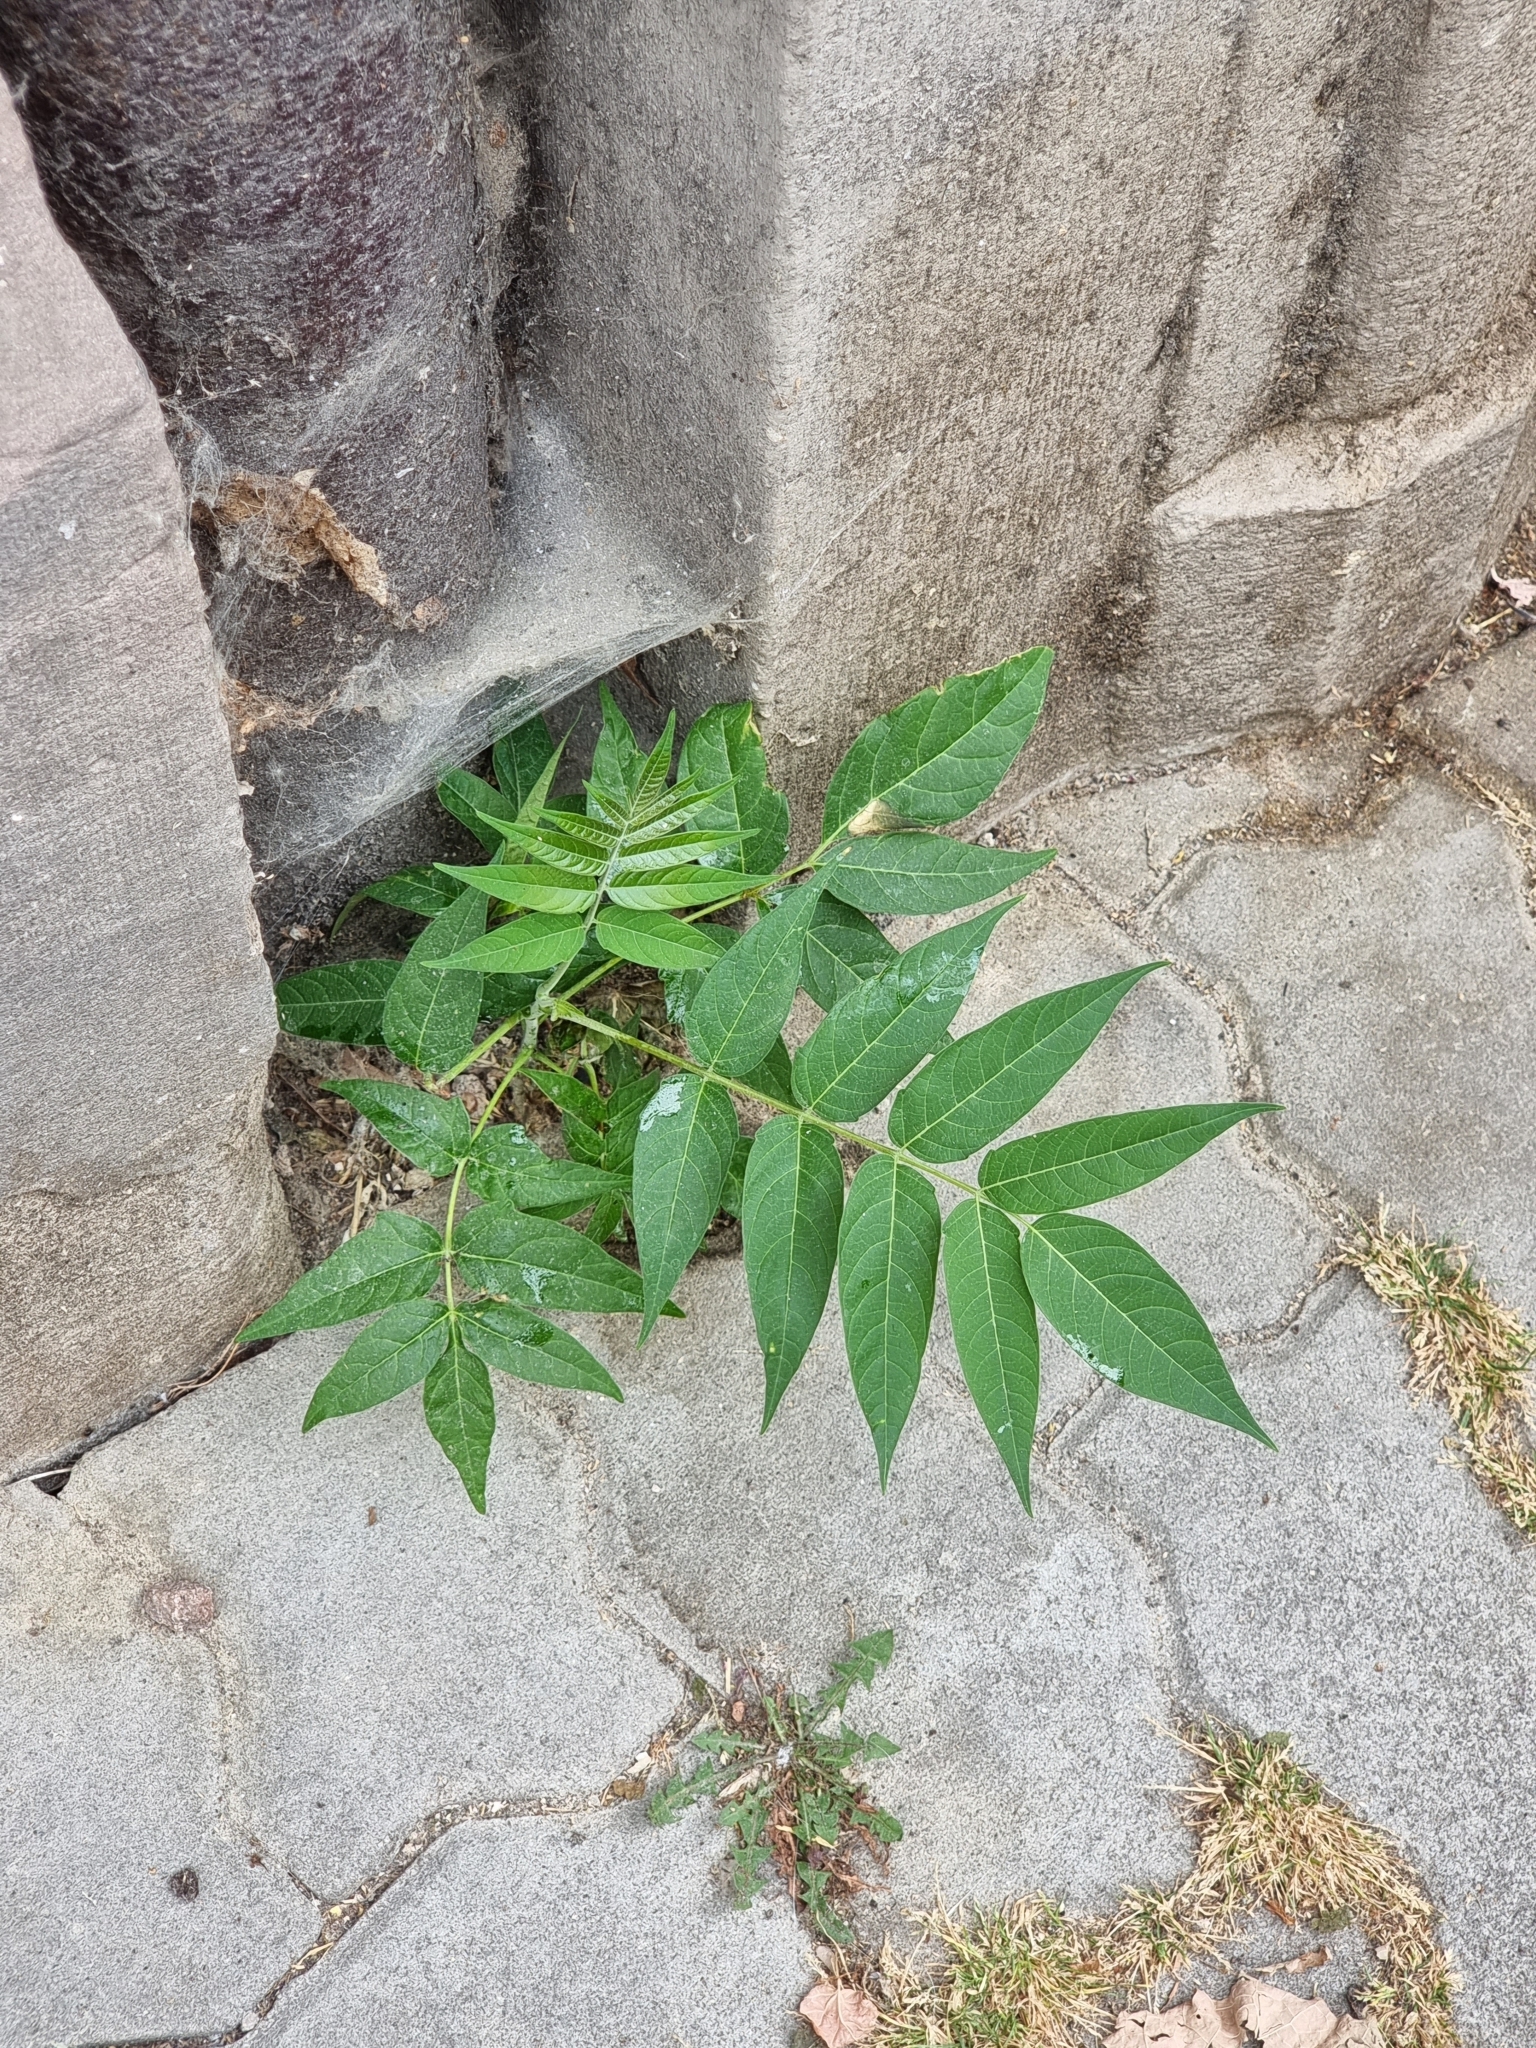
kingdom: Plantae
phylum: Tracheophyta
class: Magnoliopsida
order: Sapindales
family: Simaroubaceae
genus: Ailanthus
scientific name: Ailanthus altissima
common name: Tree-of-heaven
